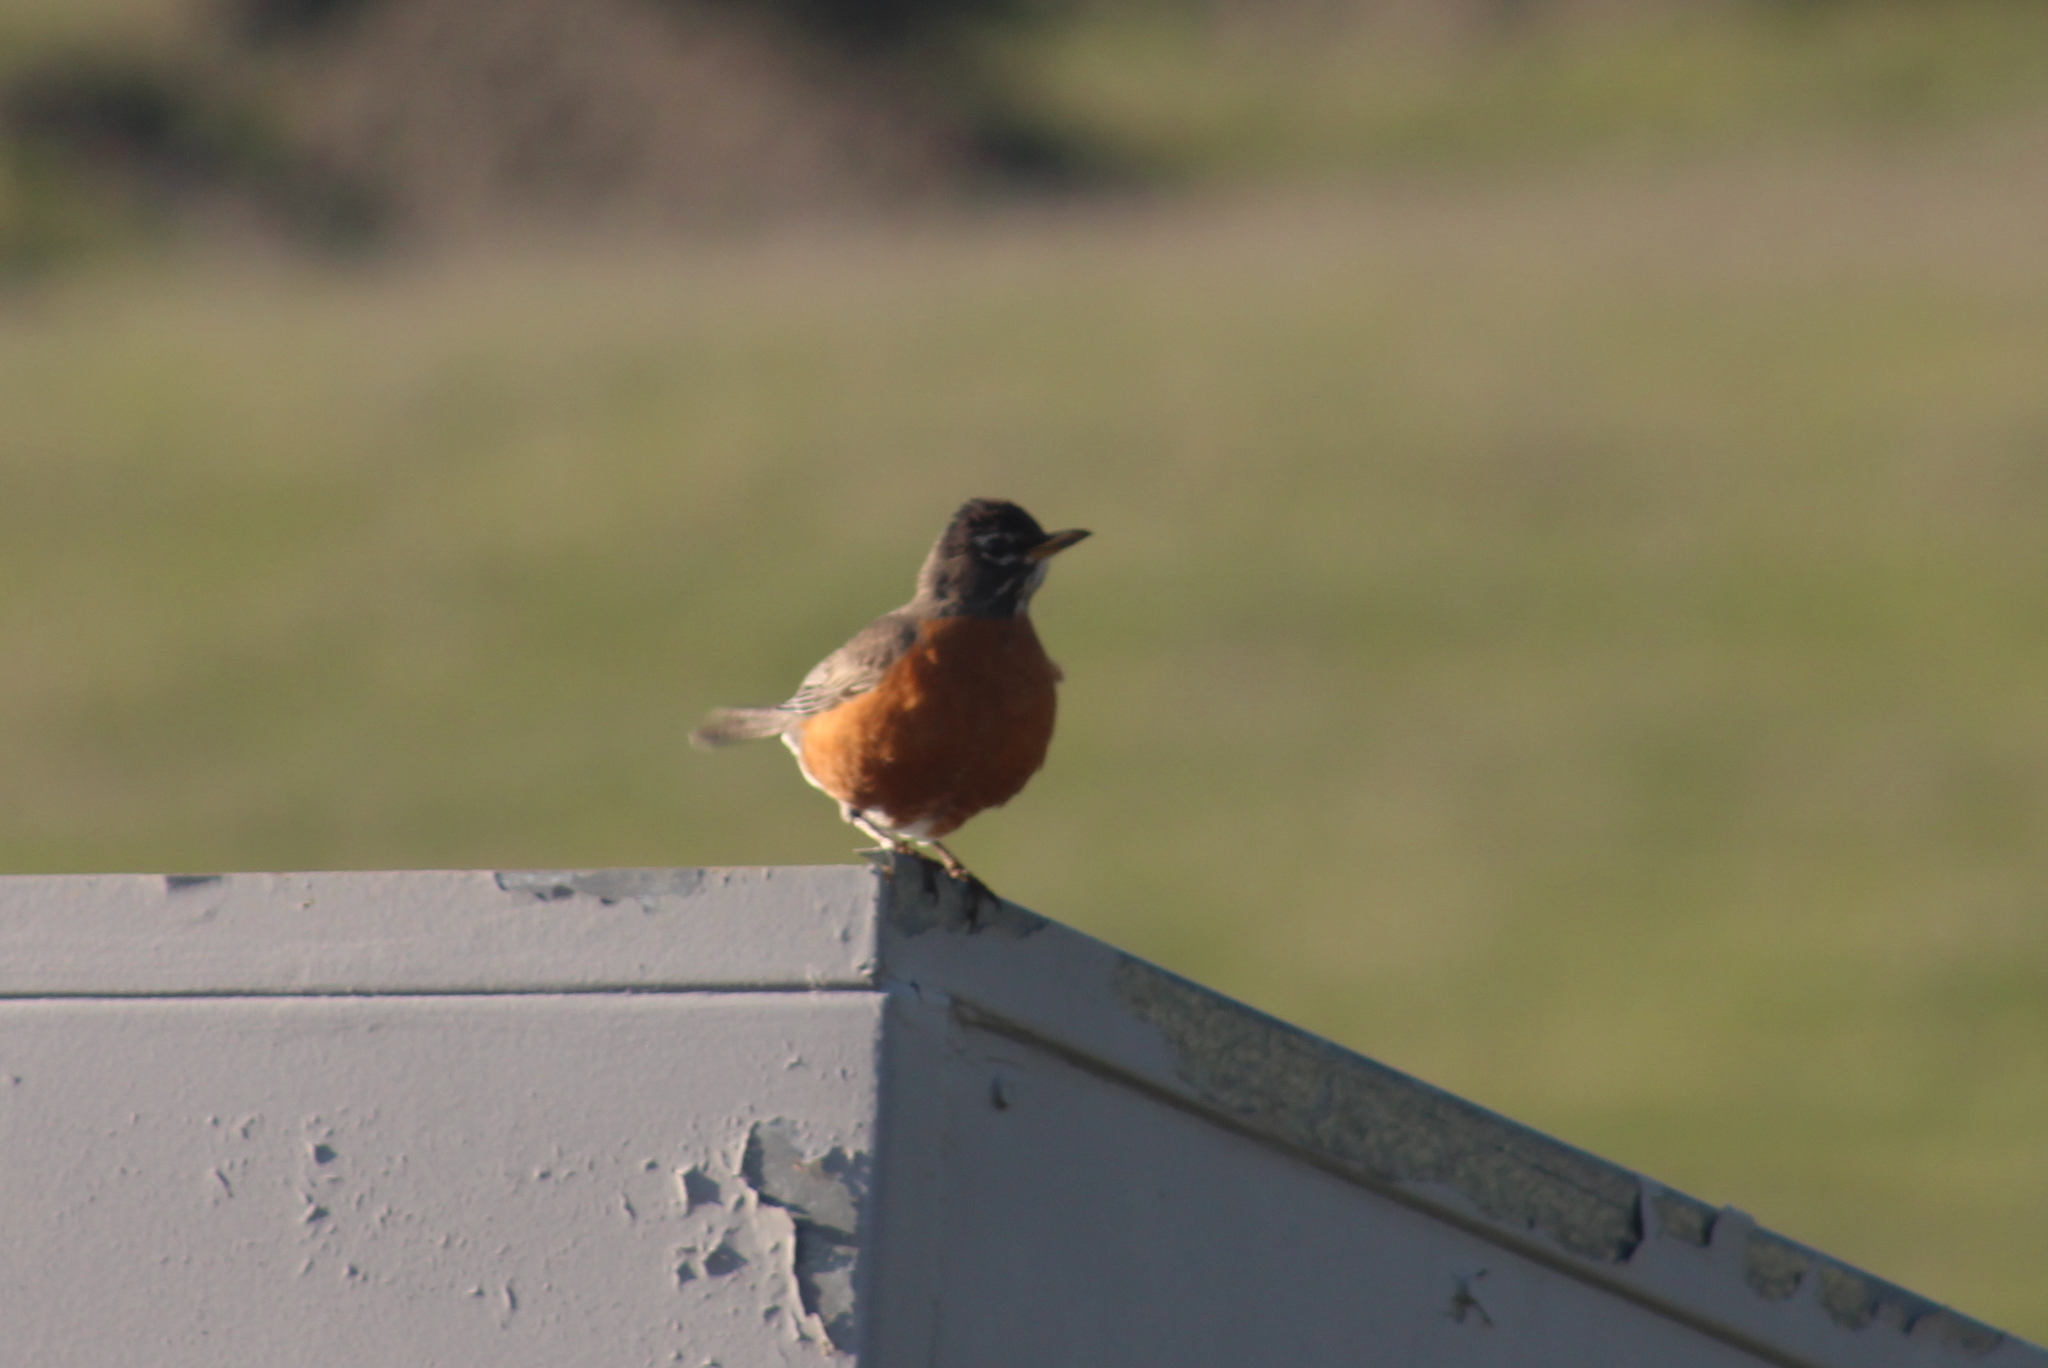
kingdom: Animalia
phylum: Chordata
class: Aves
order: Passeriformes
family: Turdidae
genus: Turdus
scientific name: Turdus migratorius
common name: American robin
